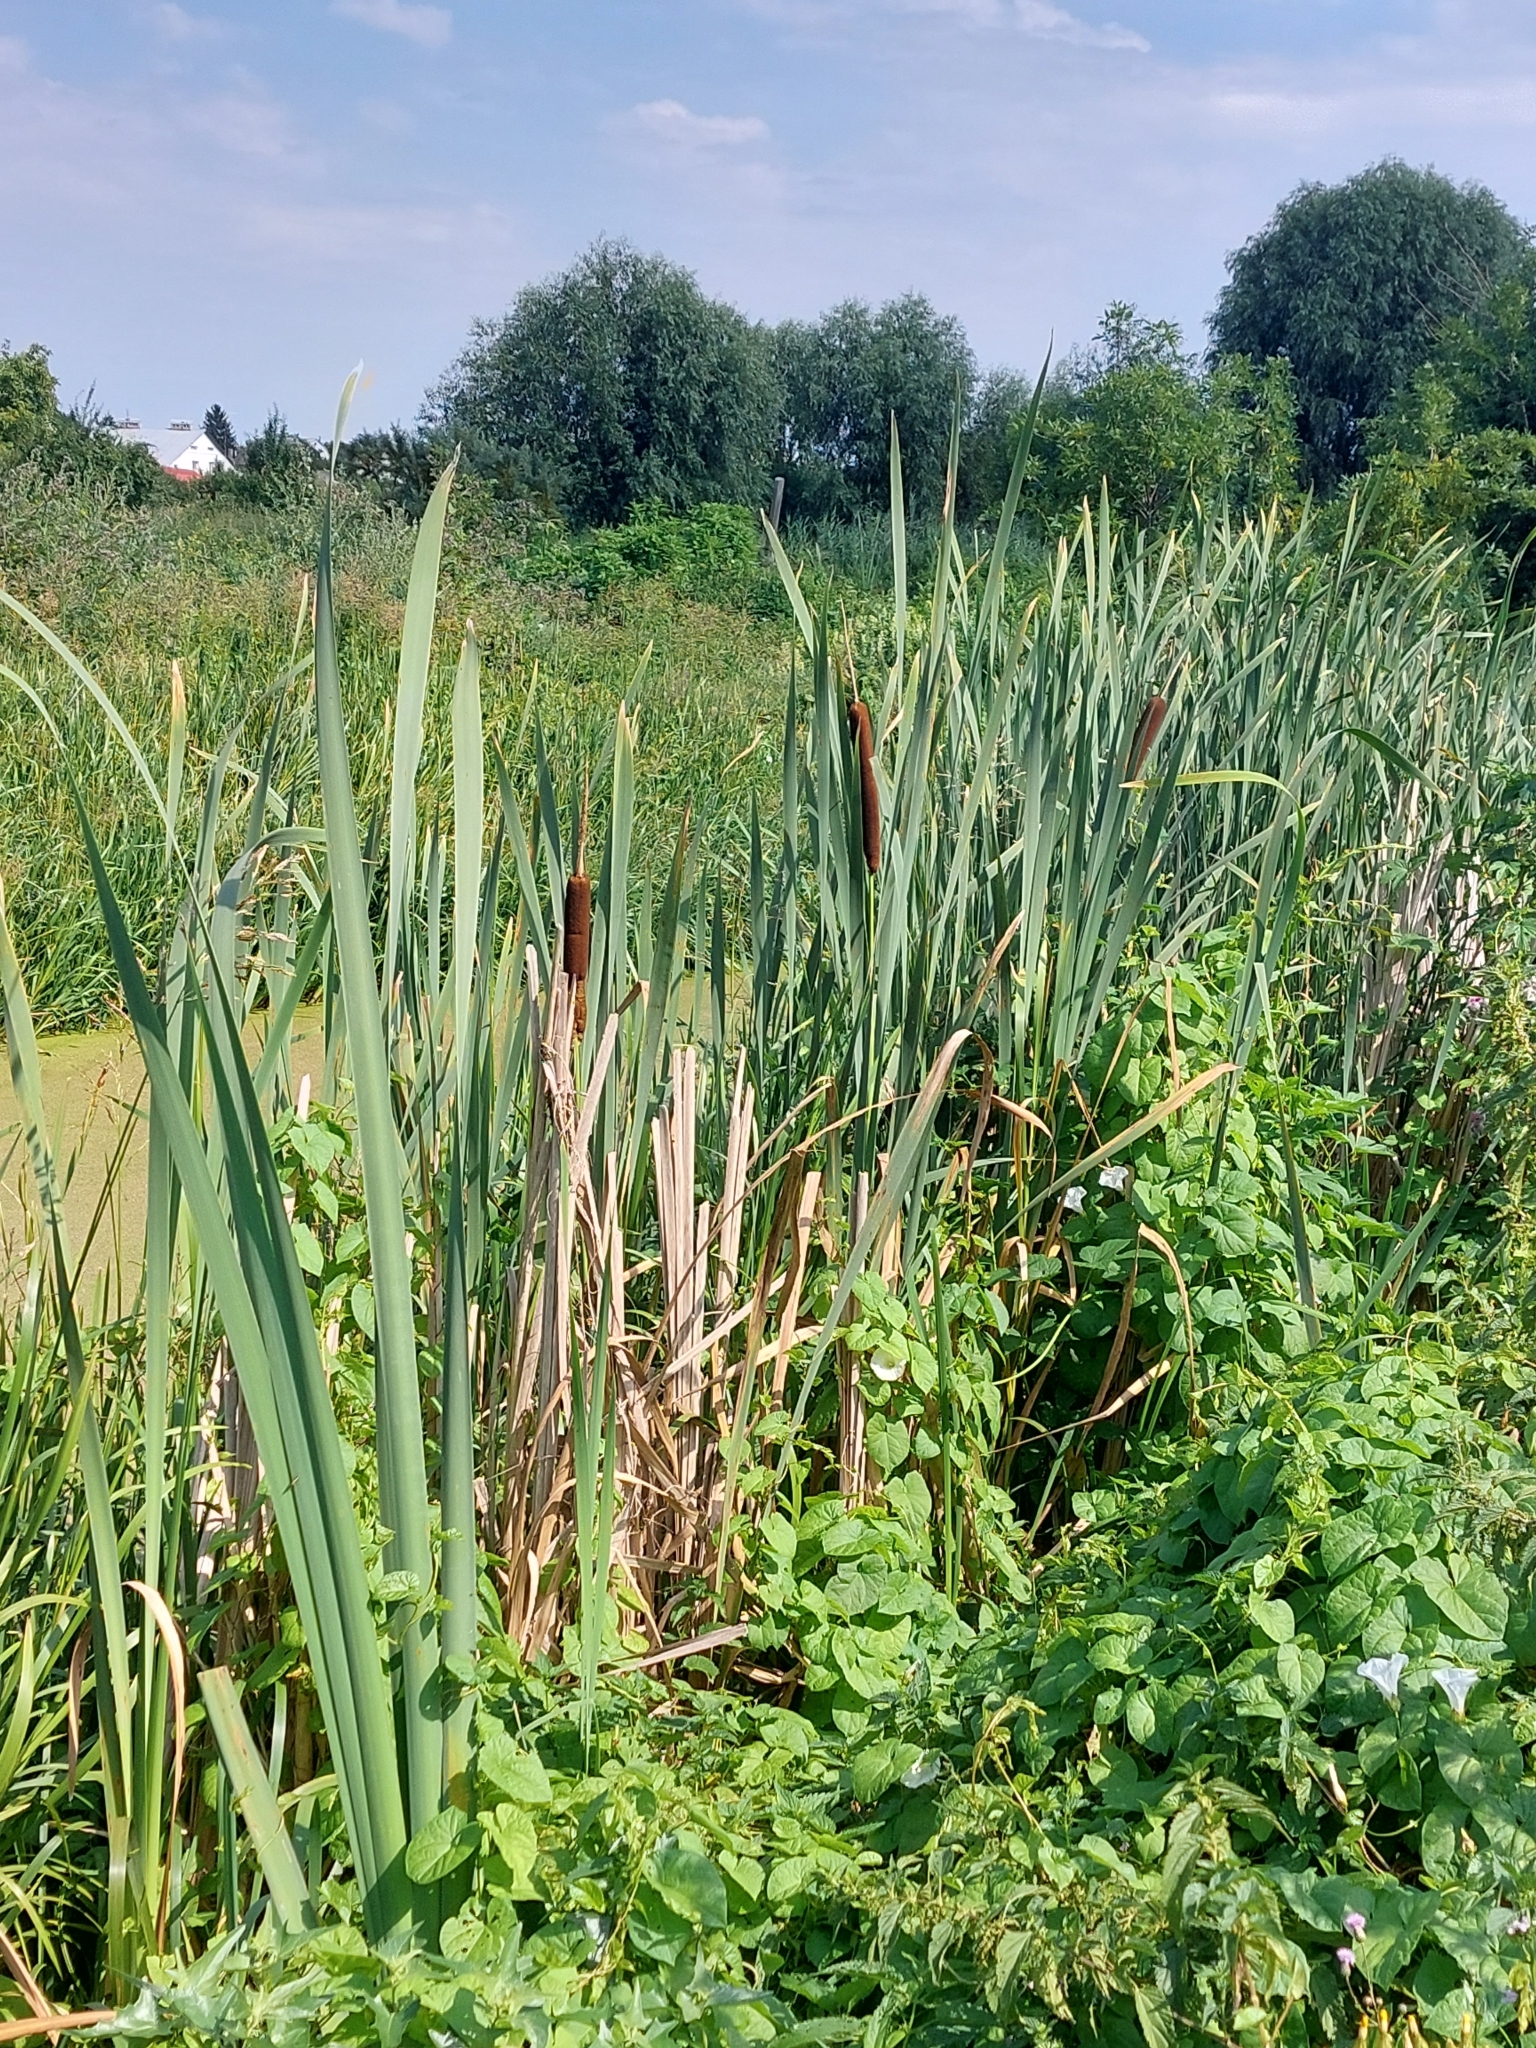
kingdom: Plantae
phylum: Tracheophyta
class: Liliopsida
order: Poales
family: Typhaceae
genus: Typha
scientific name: Typha latifolia
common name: Broadleaf cattail
